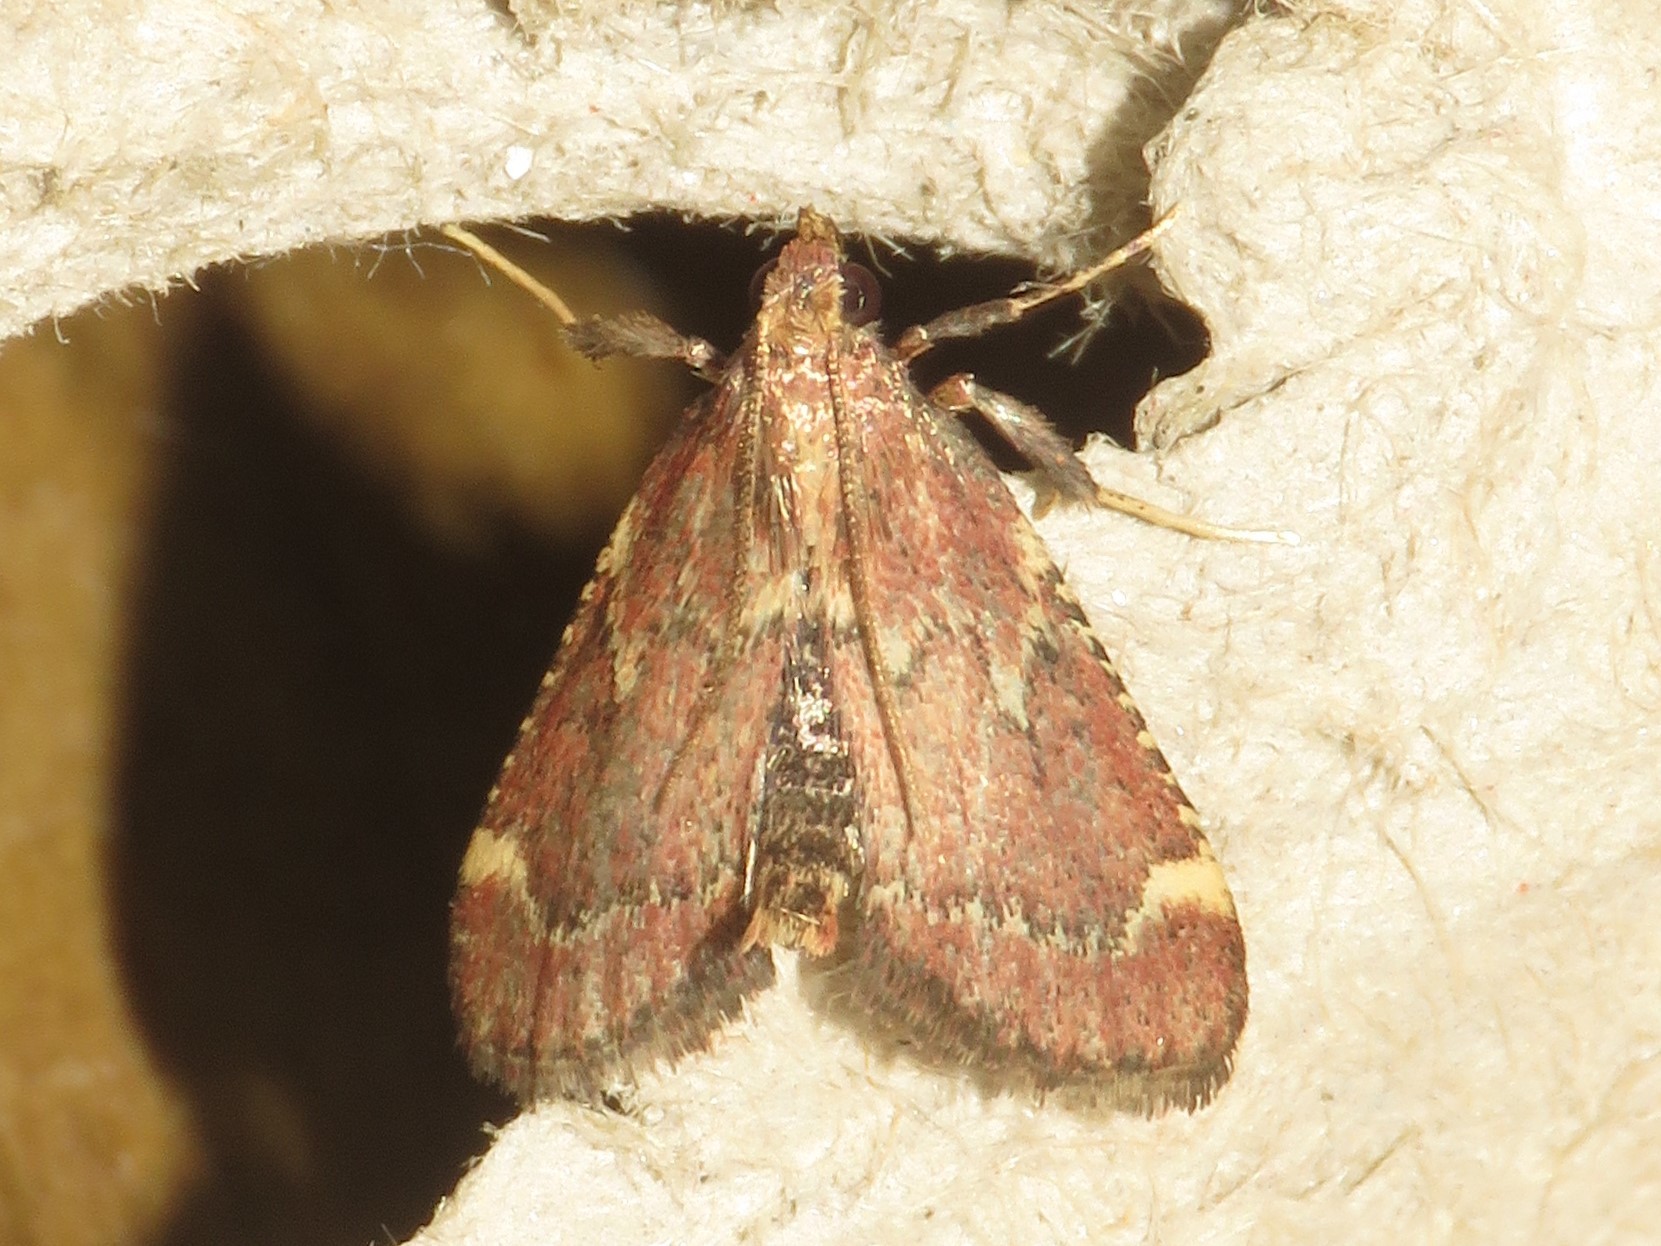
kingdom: Animalia
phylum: Arthropoda
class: Insecta
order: Lepidoptera
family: Pyralidae
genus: Hypsopygia
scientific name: Hypsopygia intermedialis
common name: Red-shawled moth
